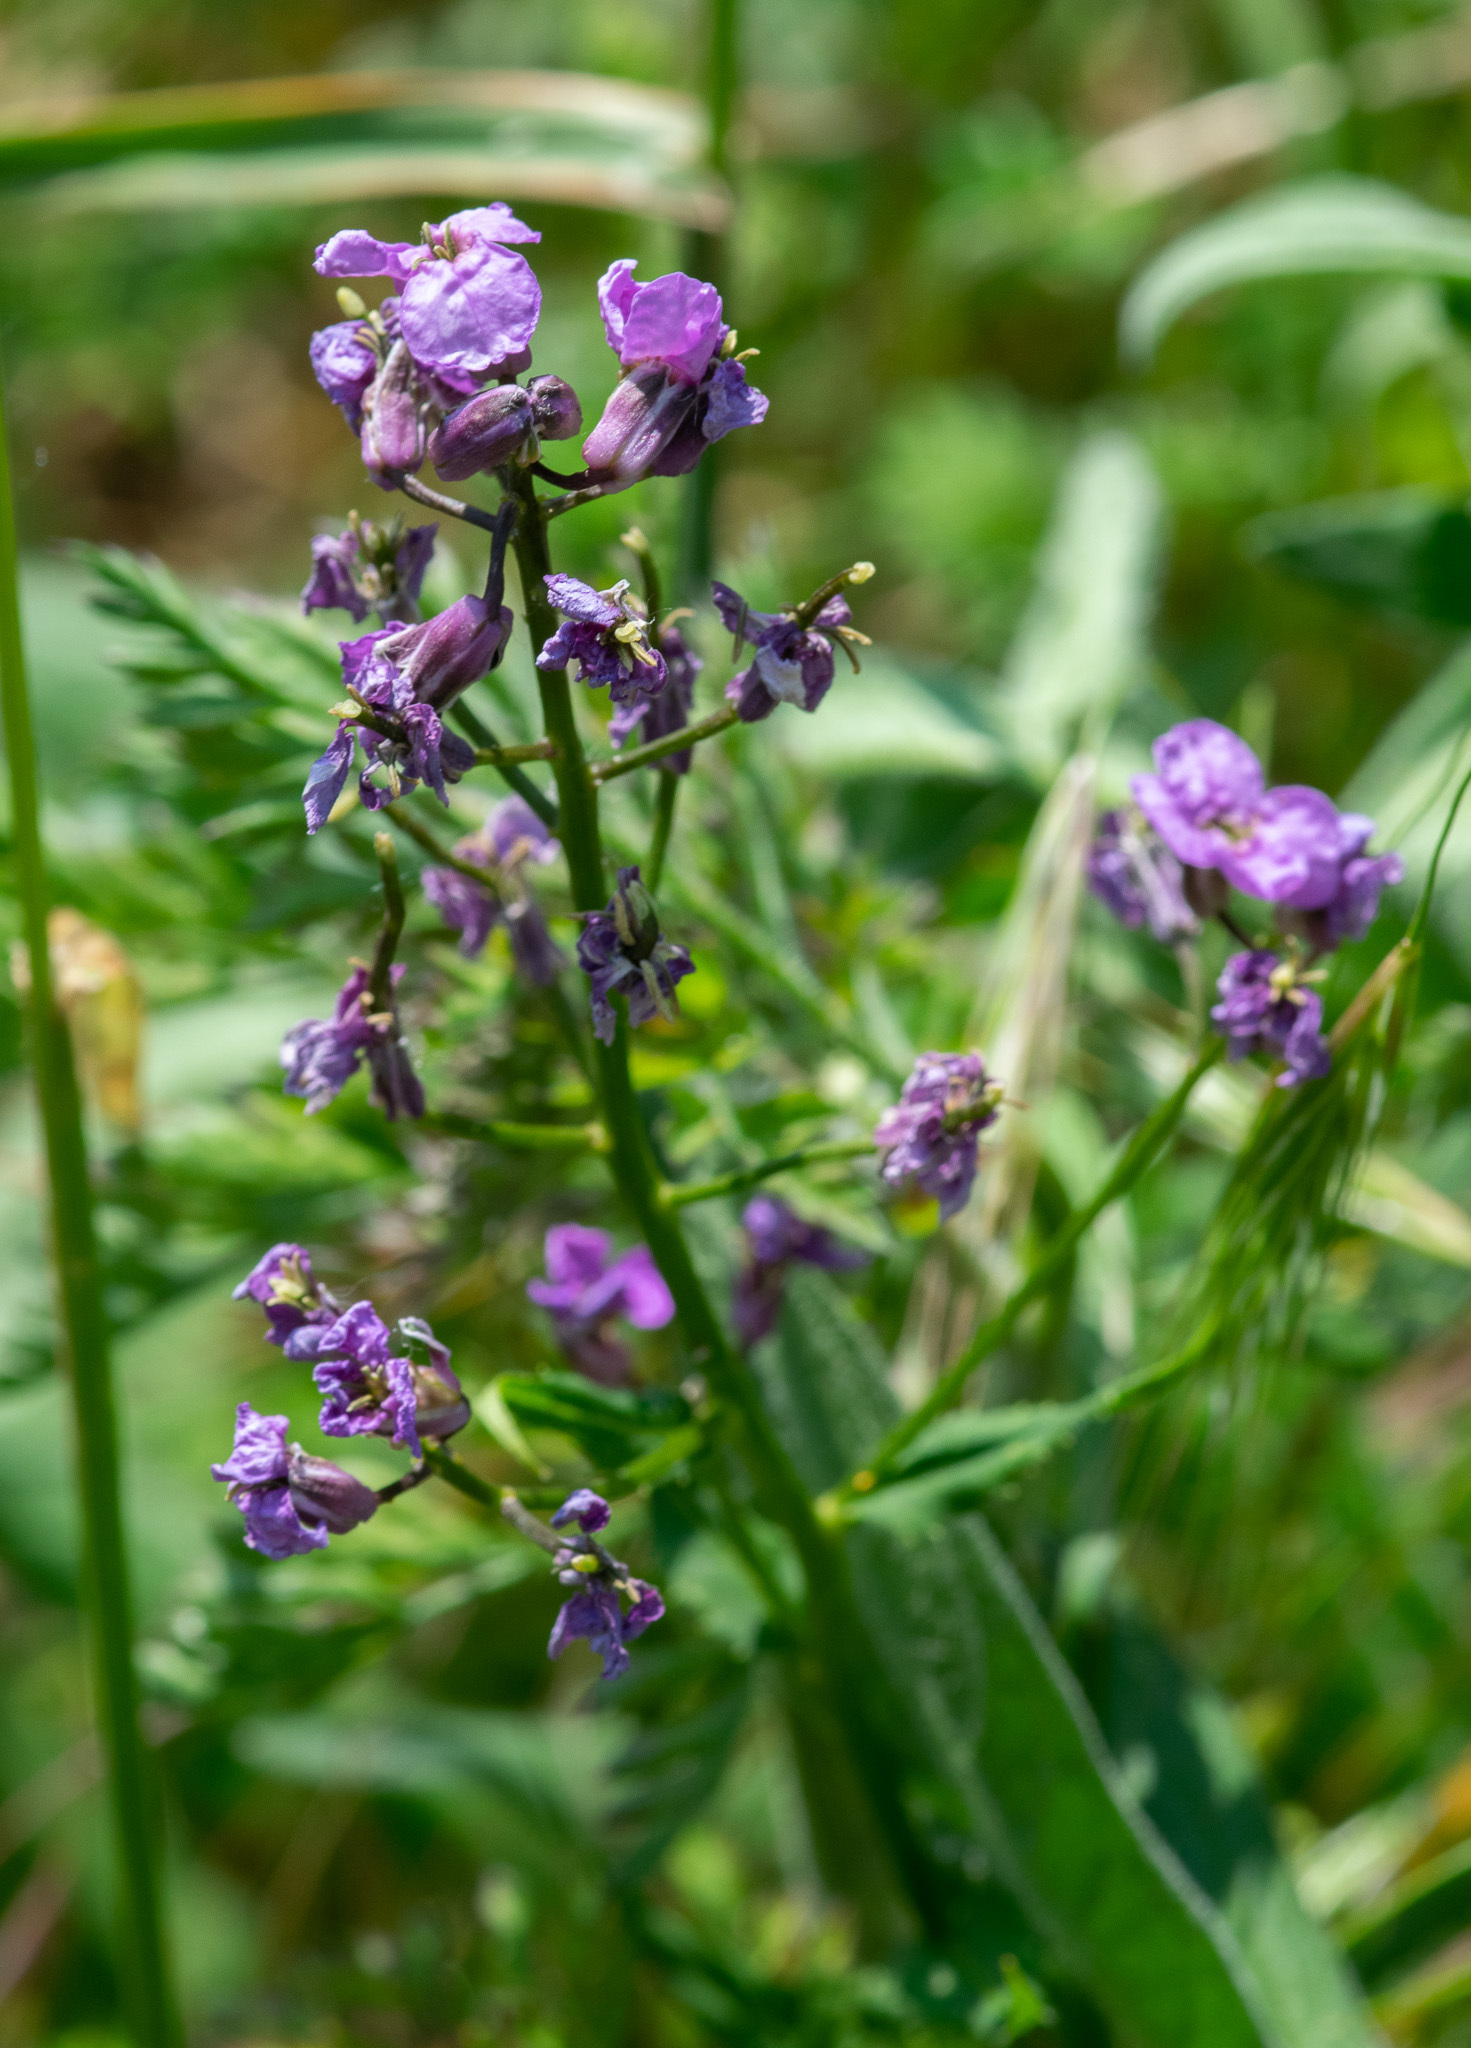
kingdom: Plantae
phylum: Tracheophyta
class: Magnoliopsida
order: Brassicales
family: Brassicaceae
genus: Hesperis
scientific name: Hesperis matronalis
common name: Dame's-violet
